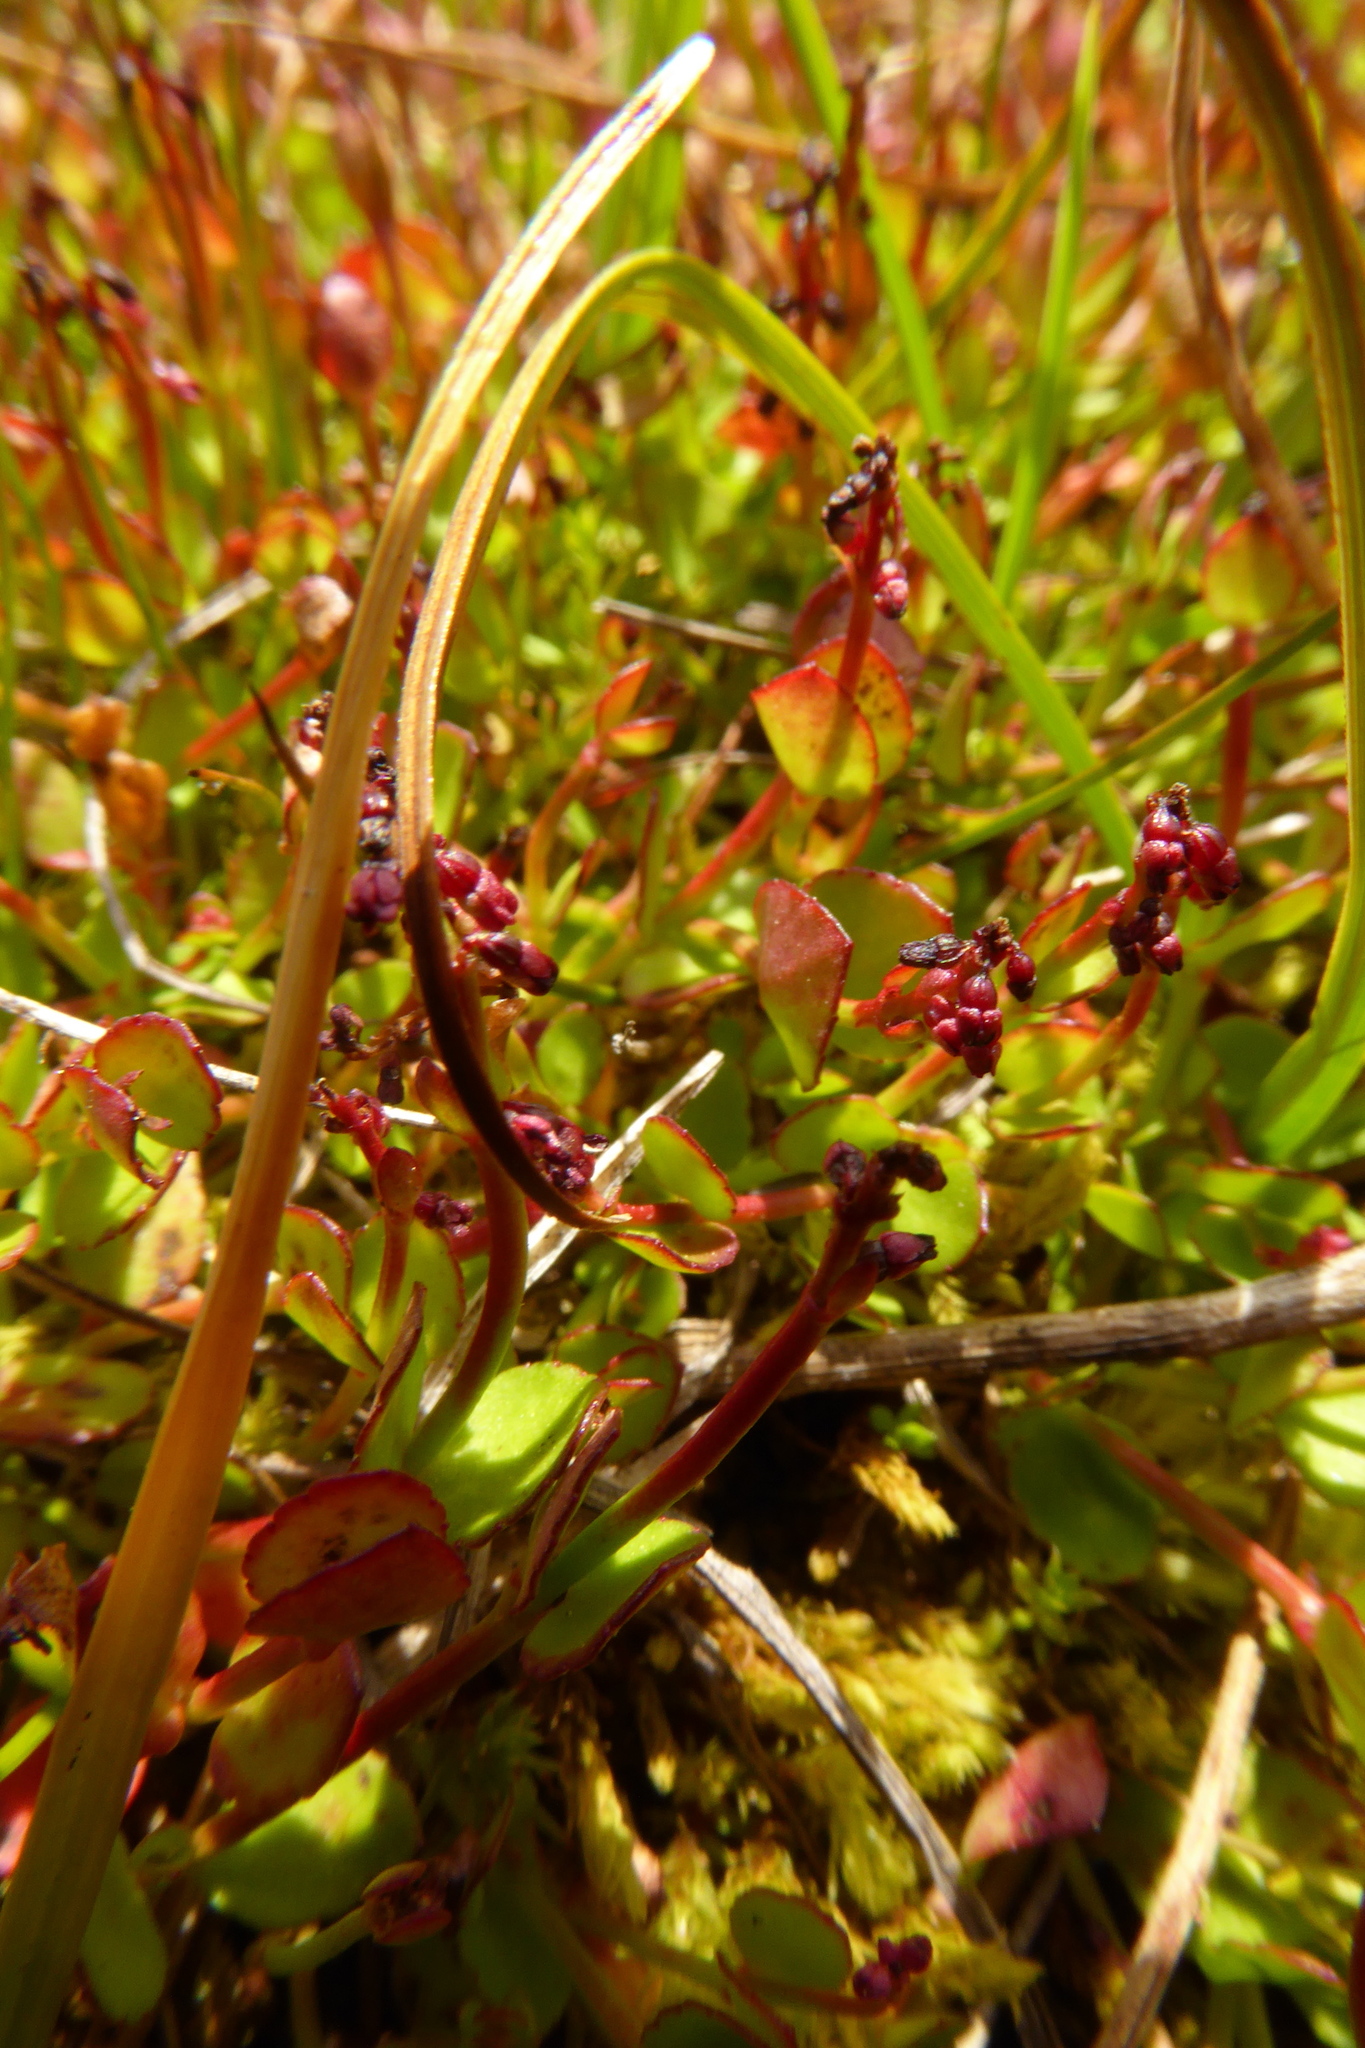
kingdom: Plantae
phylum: Tracheophyta
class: Magnoliopsida
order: Saxifragales
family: Haloragaceae
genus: Gonocarpus
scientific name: Gonocarpus micranthus
